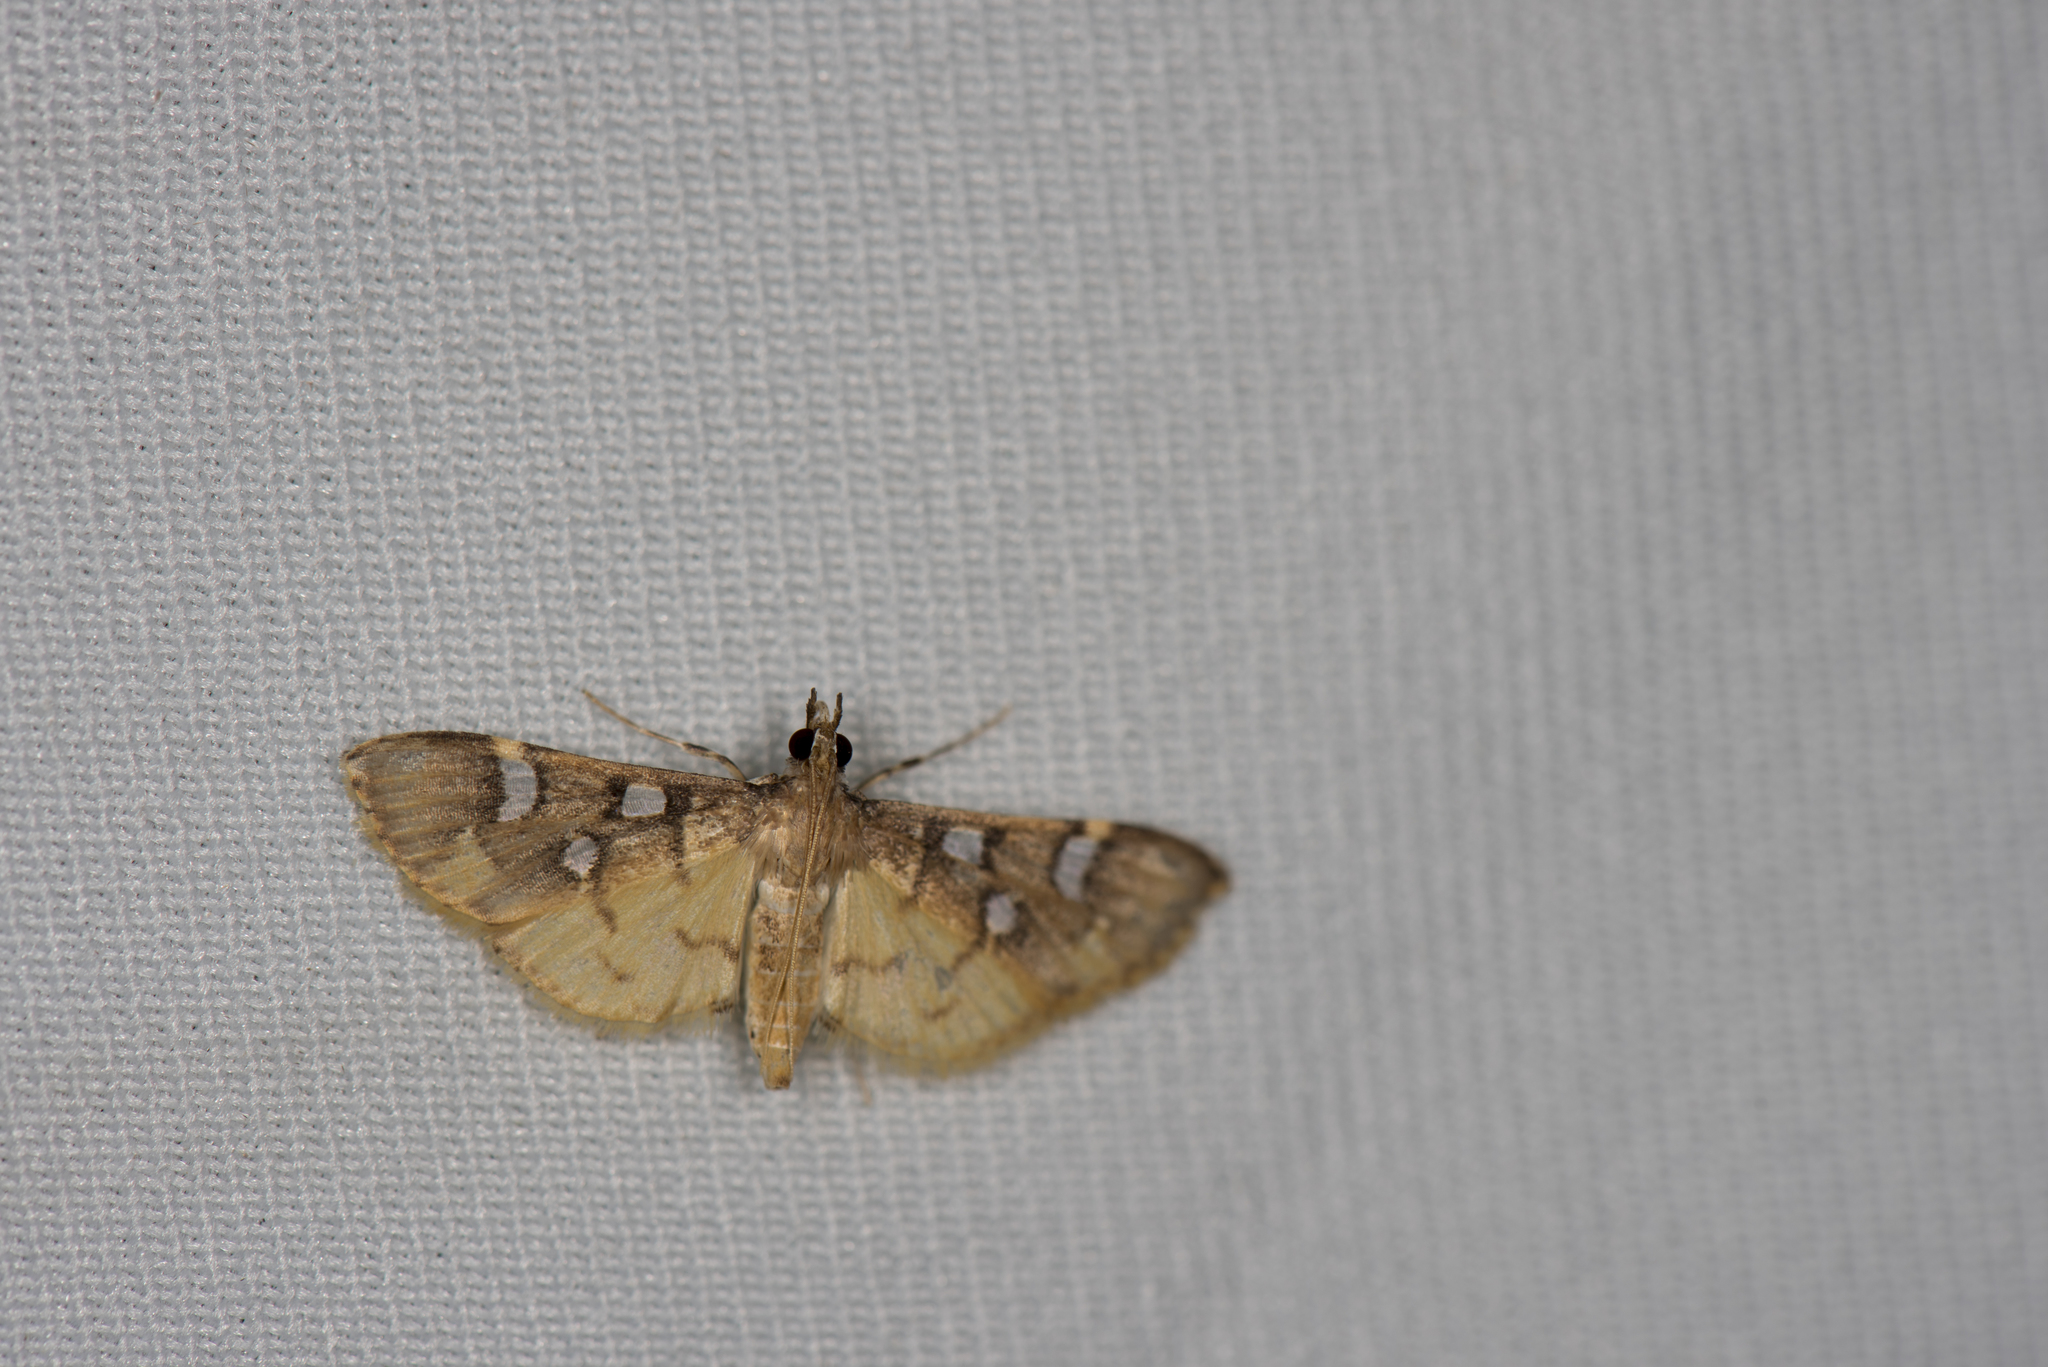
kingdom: Animalia
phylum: Arthropoda
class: Insecta
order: Lepidoptera
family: Crambidae
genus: Cotachena
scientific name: Cotachena pubescens
